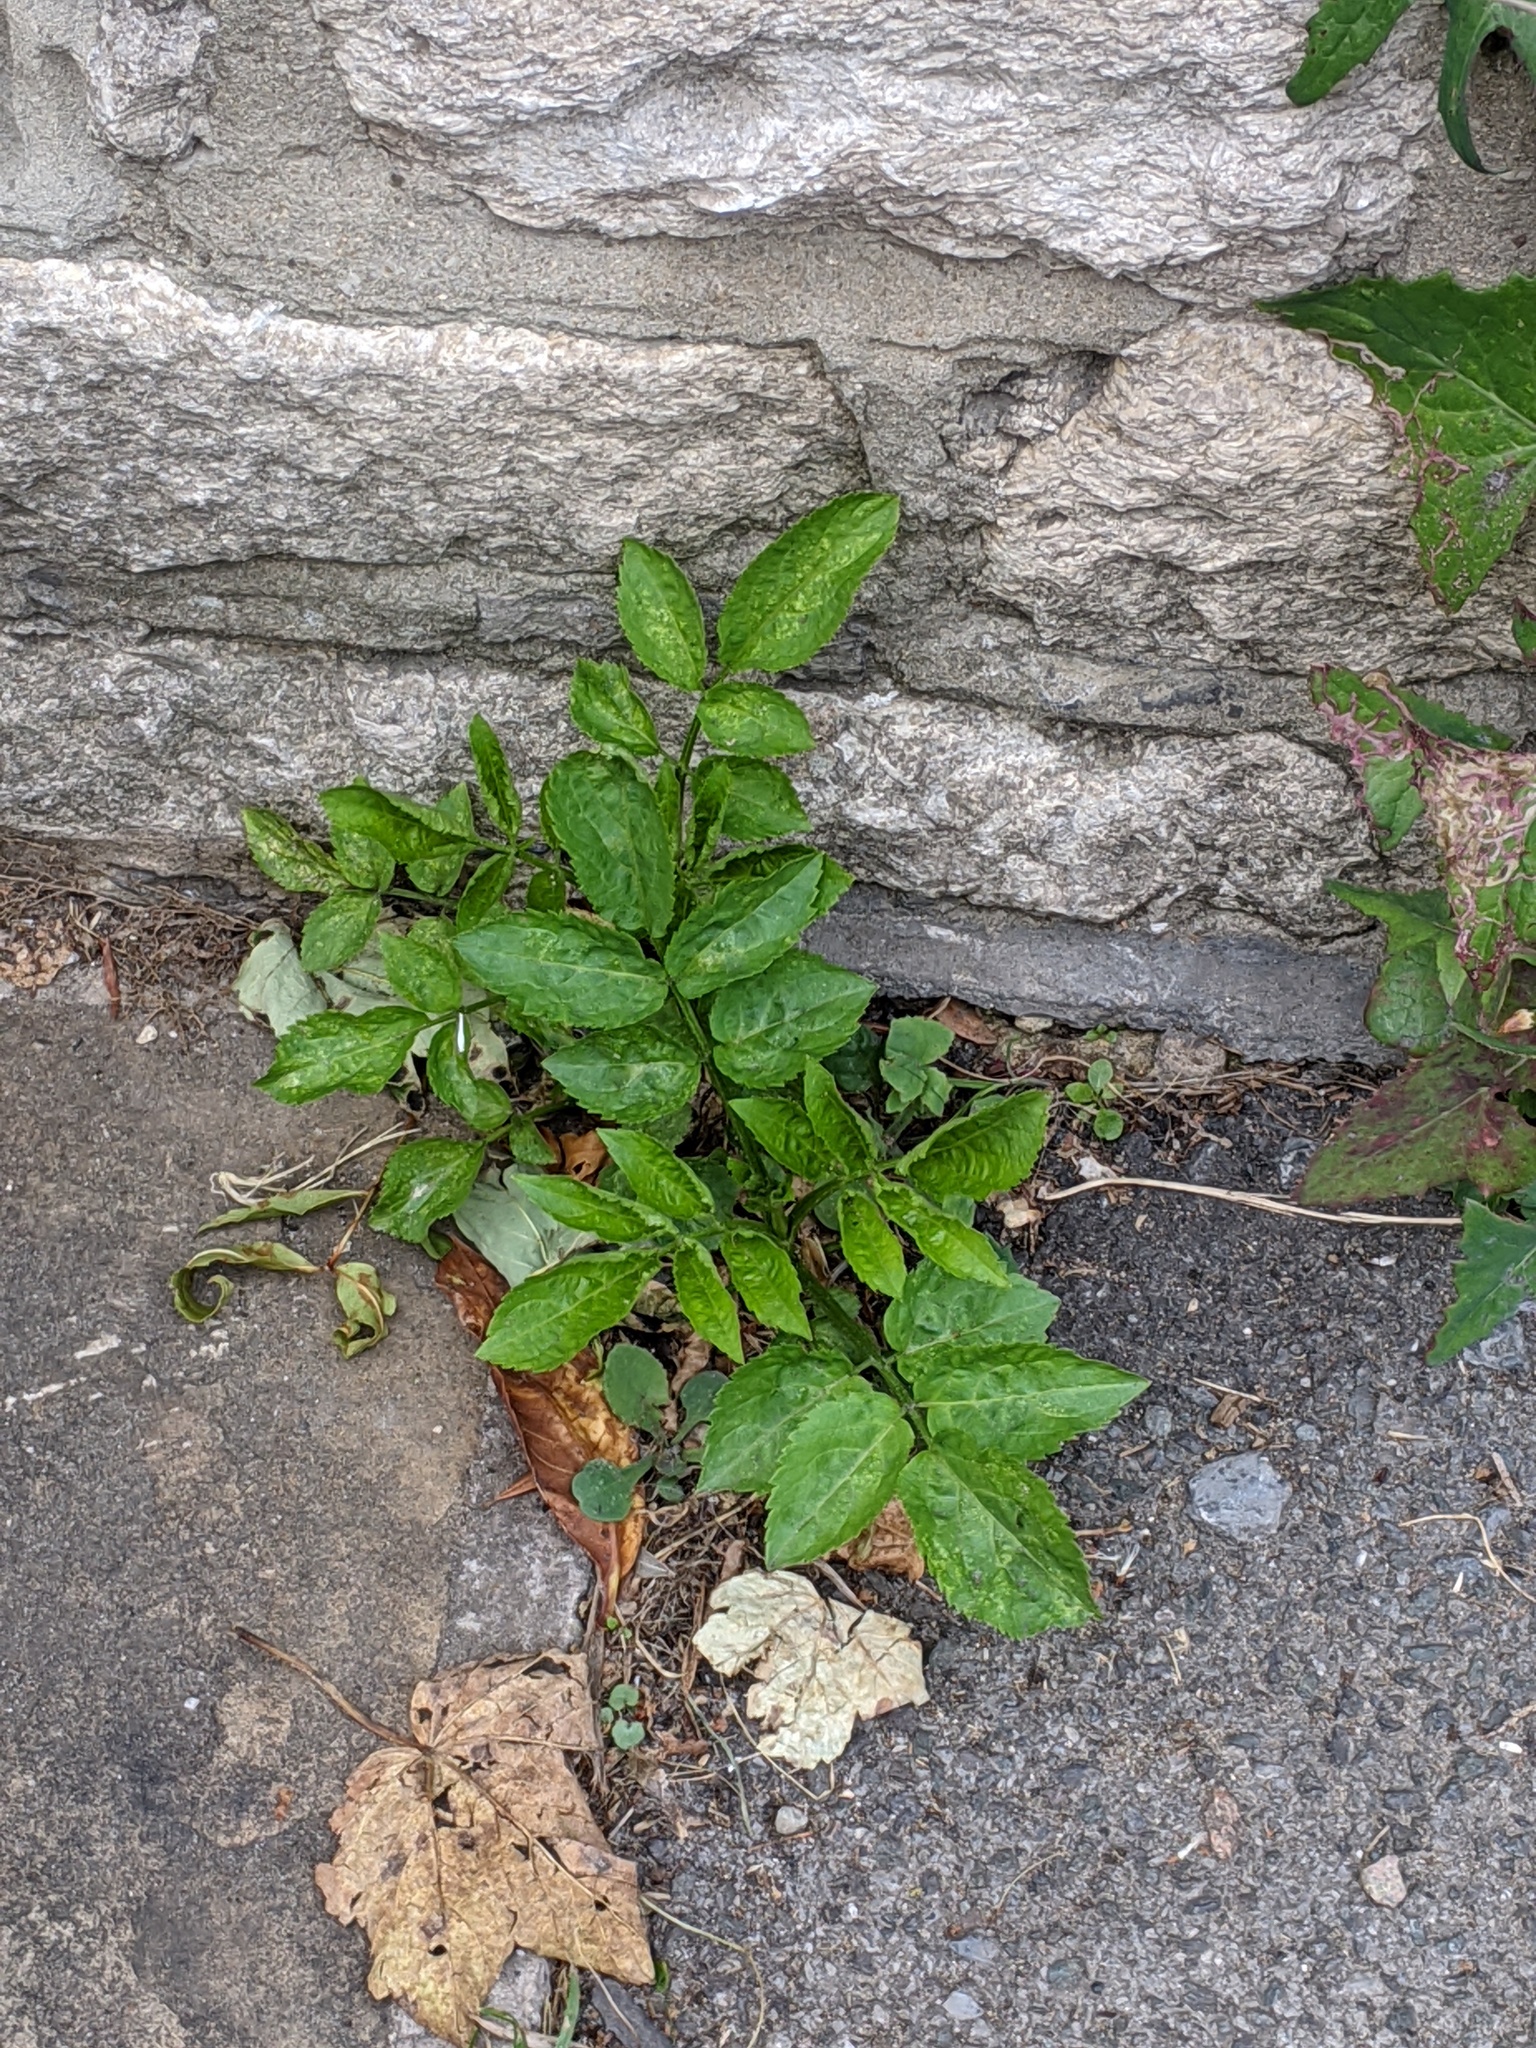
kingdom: Plantae
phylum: Tracheophyta
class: Magnoliopsida
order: Dipsacales
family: Viburnaceae
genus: Sambucus
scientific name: Sambucus nigra
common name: Elder
